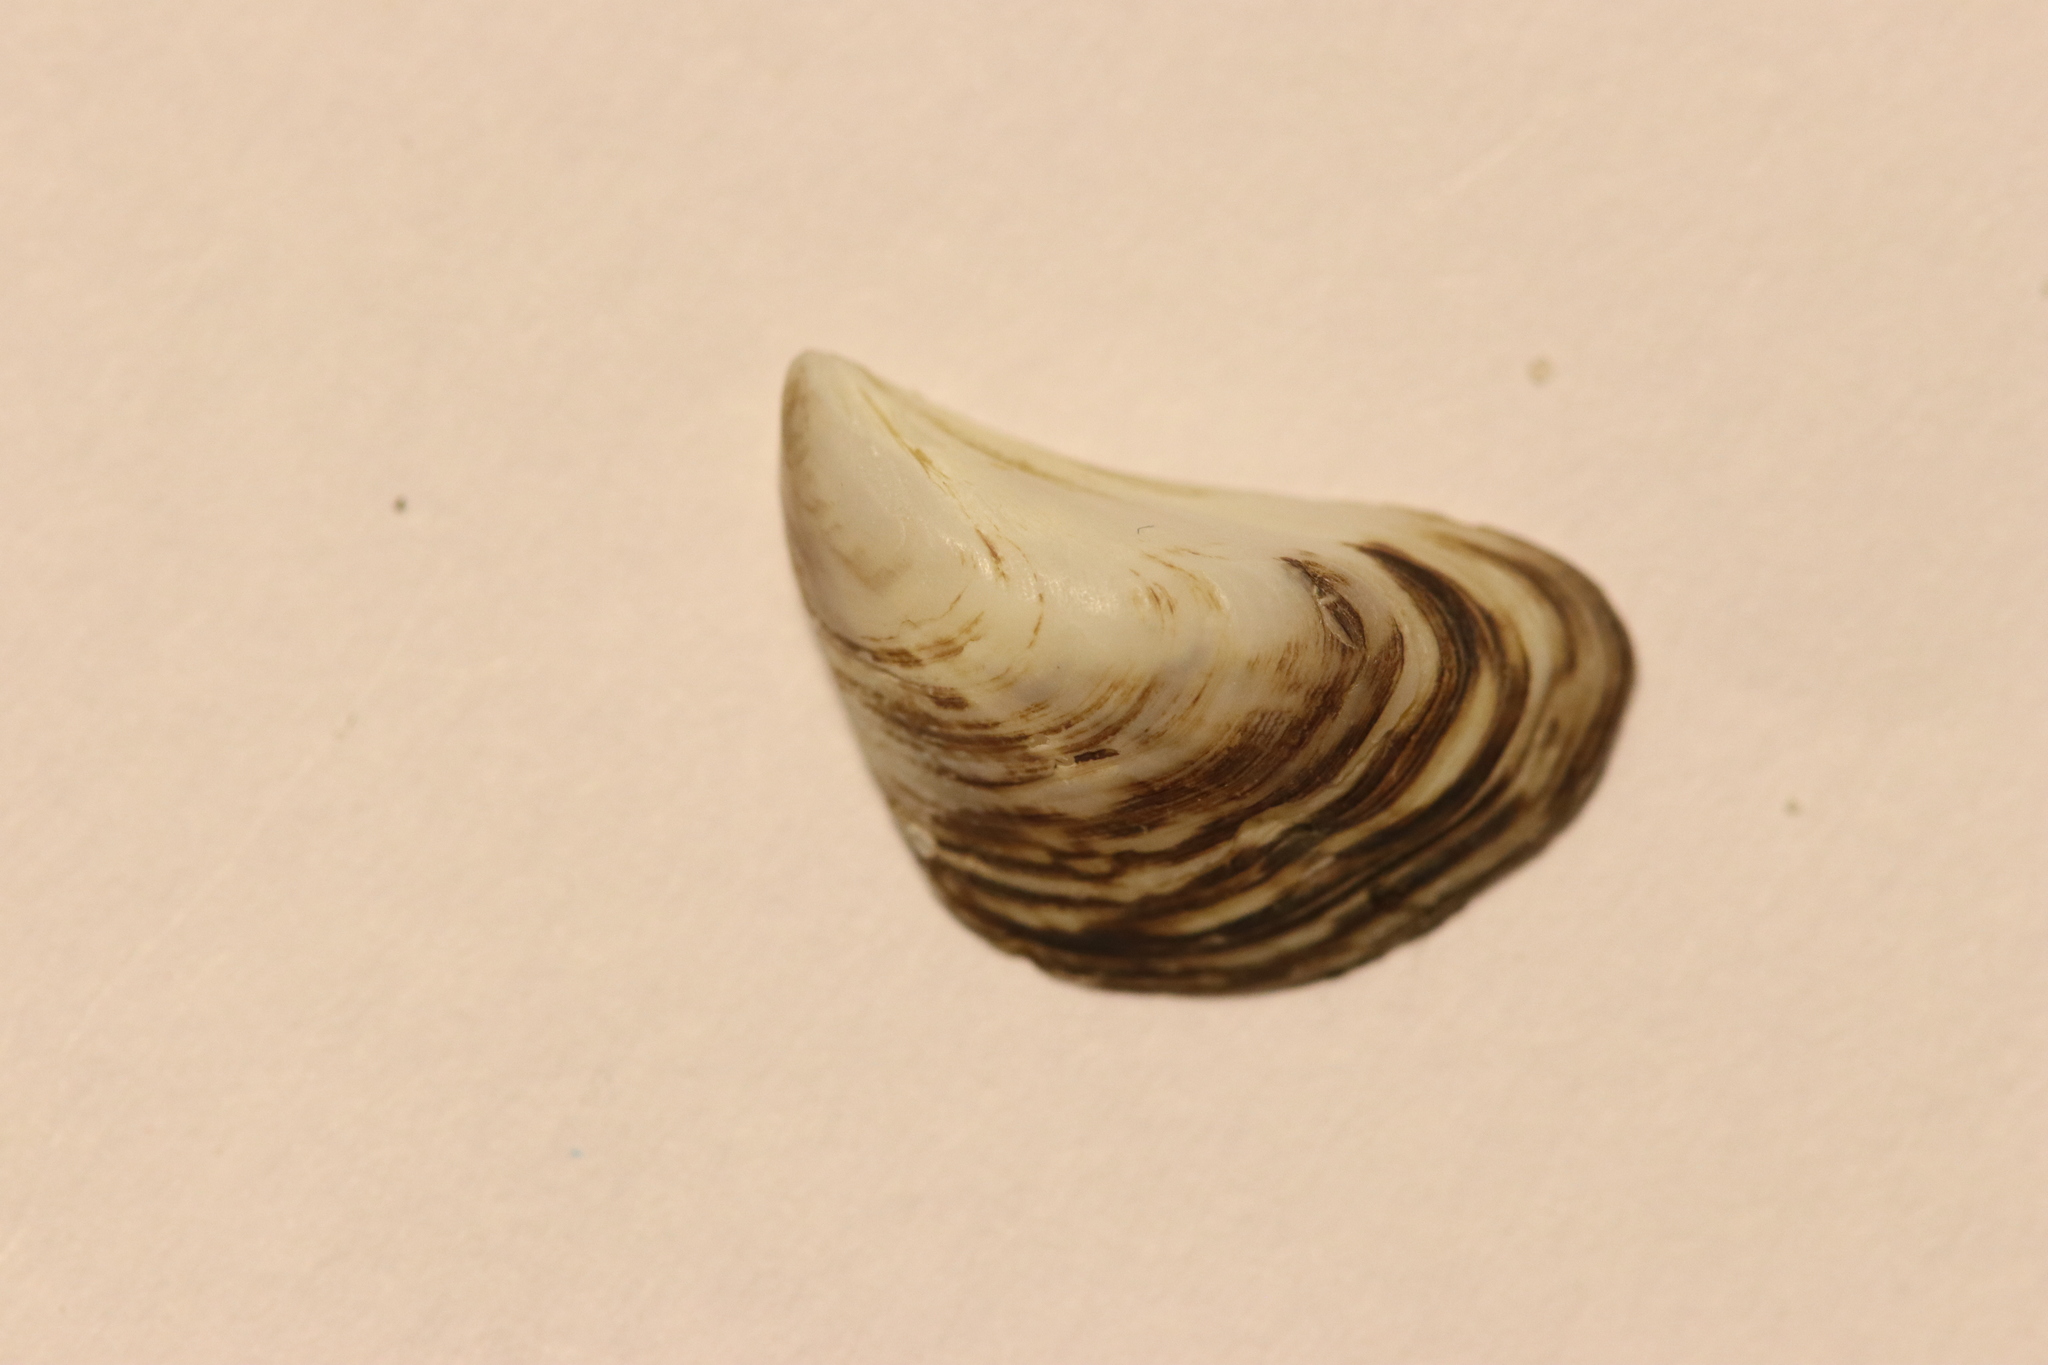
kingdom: Animalia
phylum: Mollusca
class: Bivalvia
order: Myida
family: Dreissenidae
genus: Dreissena
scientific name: Dreissena bugensis
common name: Quagga mussel
